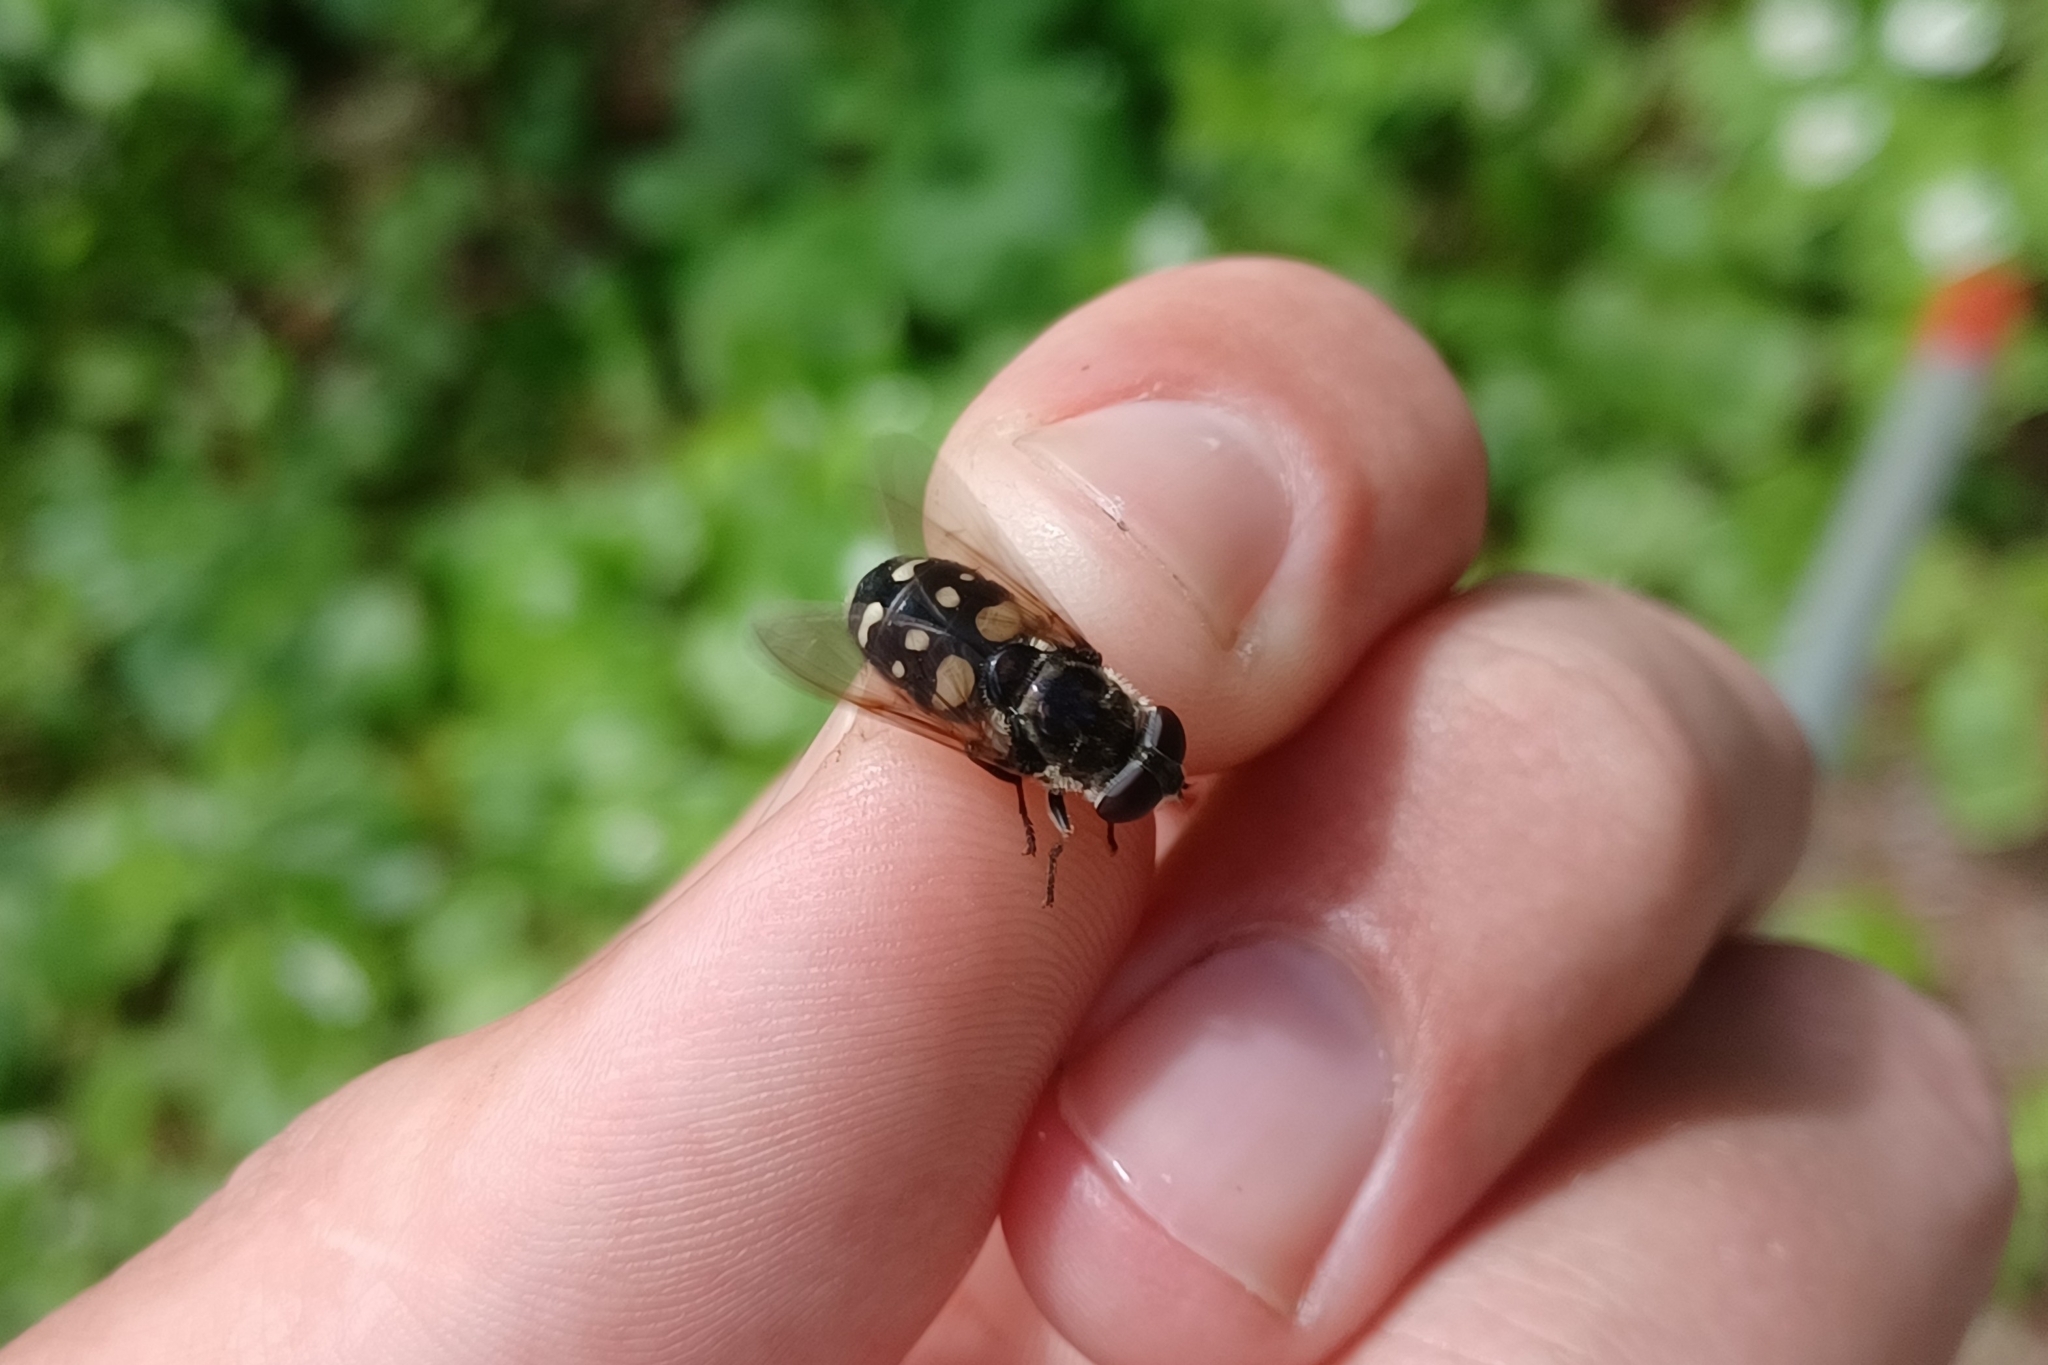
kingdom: Animalia
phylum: Arthropoda
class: Insecta
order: Diptera
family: Syrphidae
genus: Sericomyia
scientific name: Sericomyia lata
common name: White-spotted pond fly
